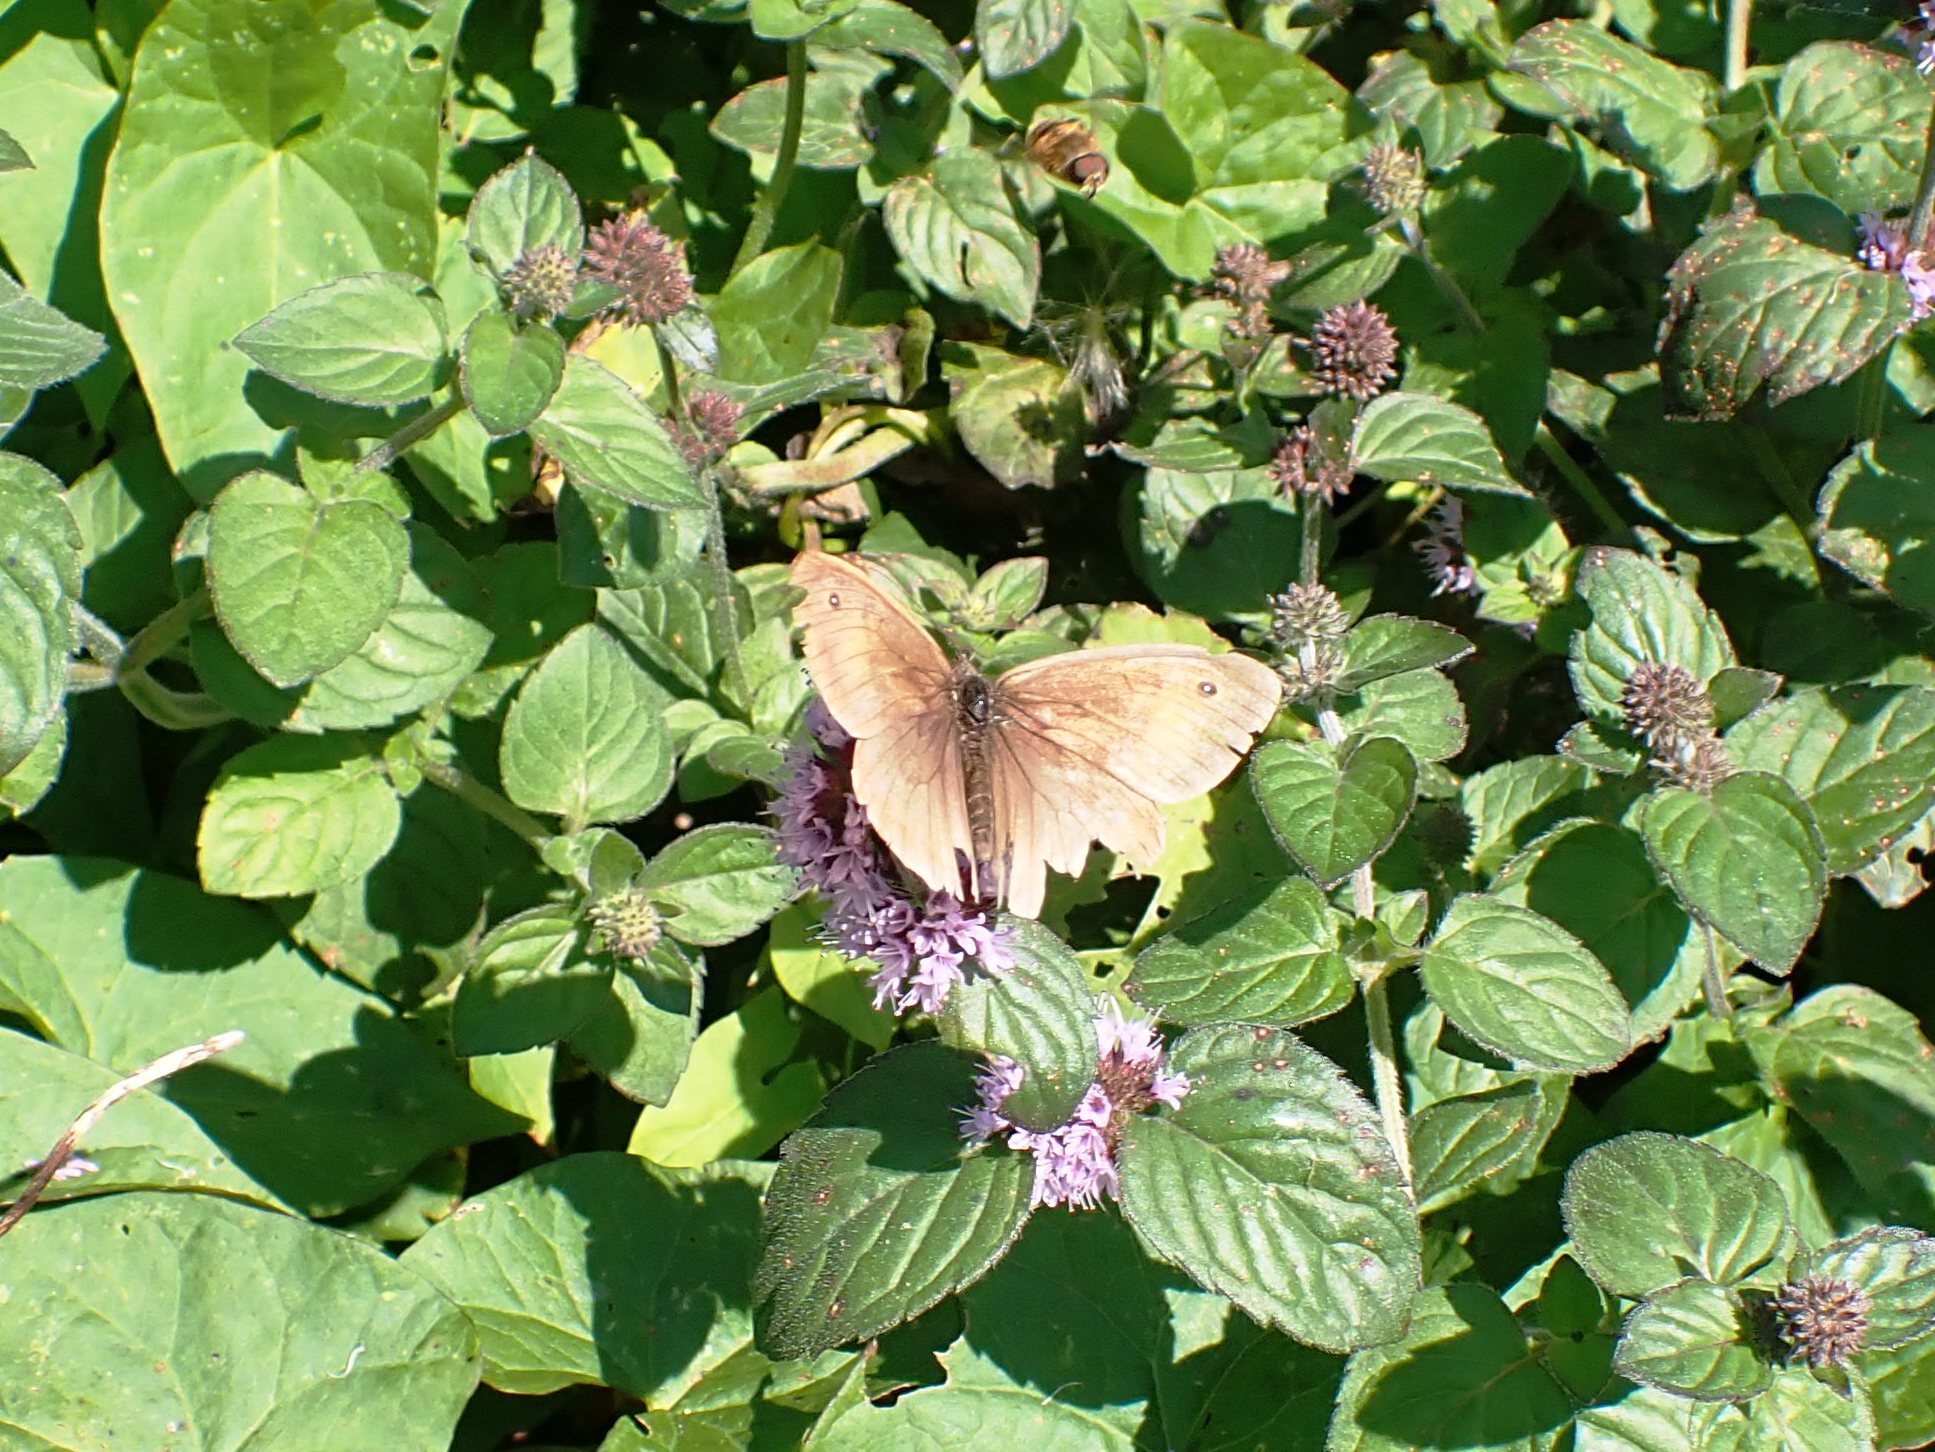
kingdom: Animalia
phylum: Arthropoda
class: Insecta
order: Lepidoptera
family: Nymphalidae
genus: Maniola
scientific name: Maniola jurtina
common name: Meadow brown
